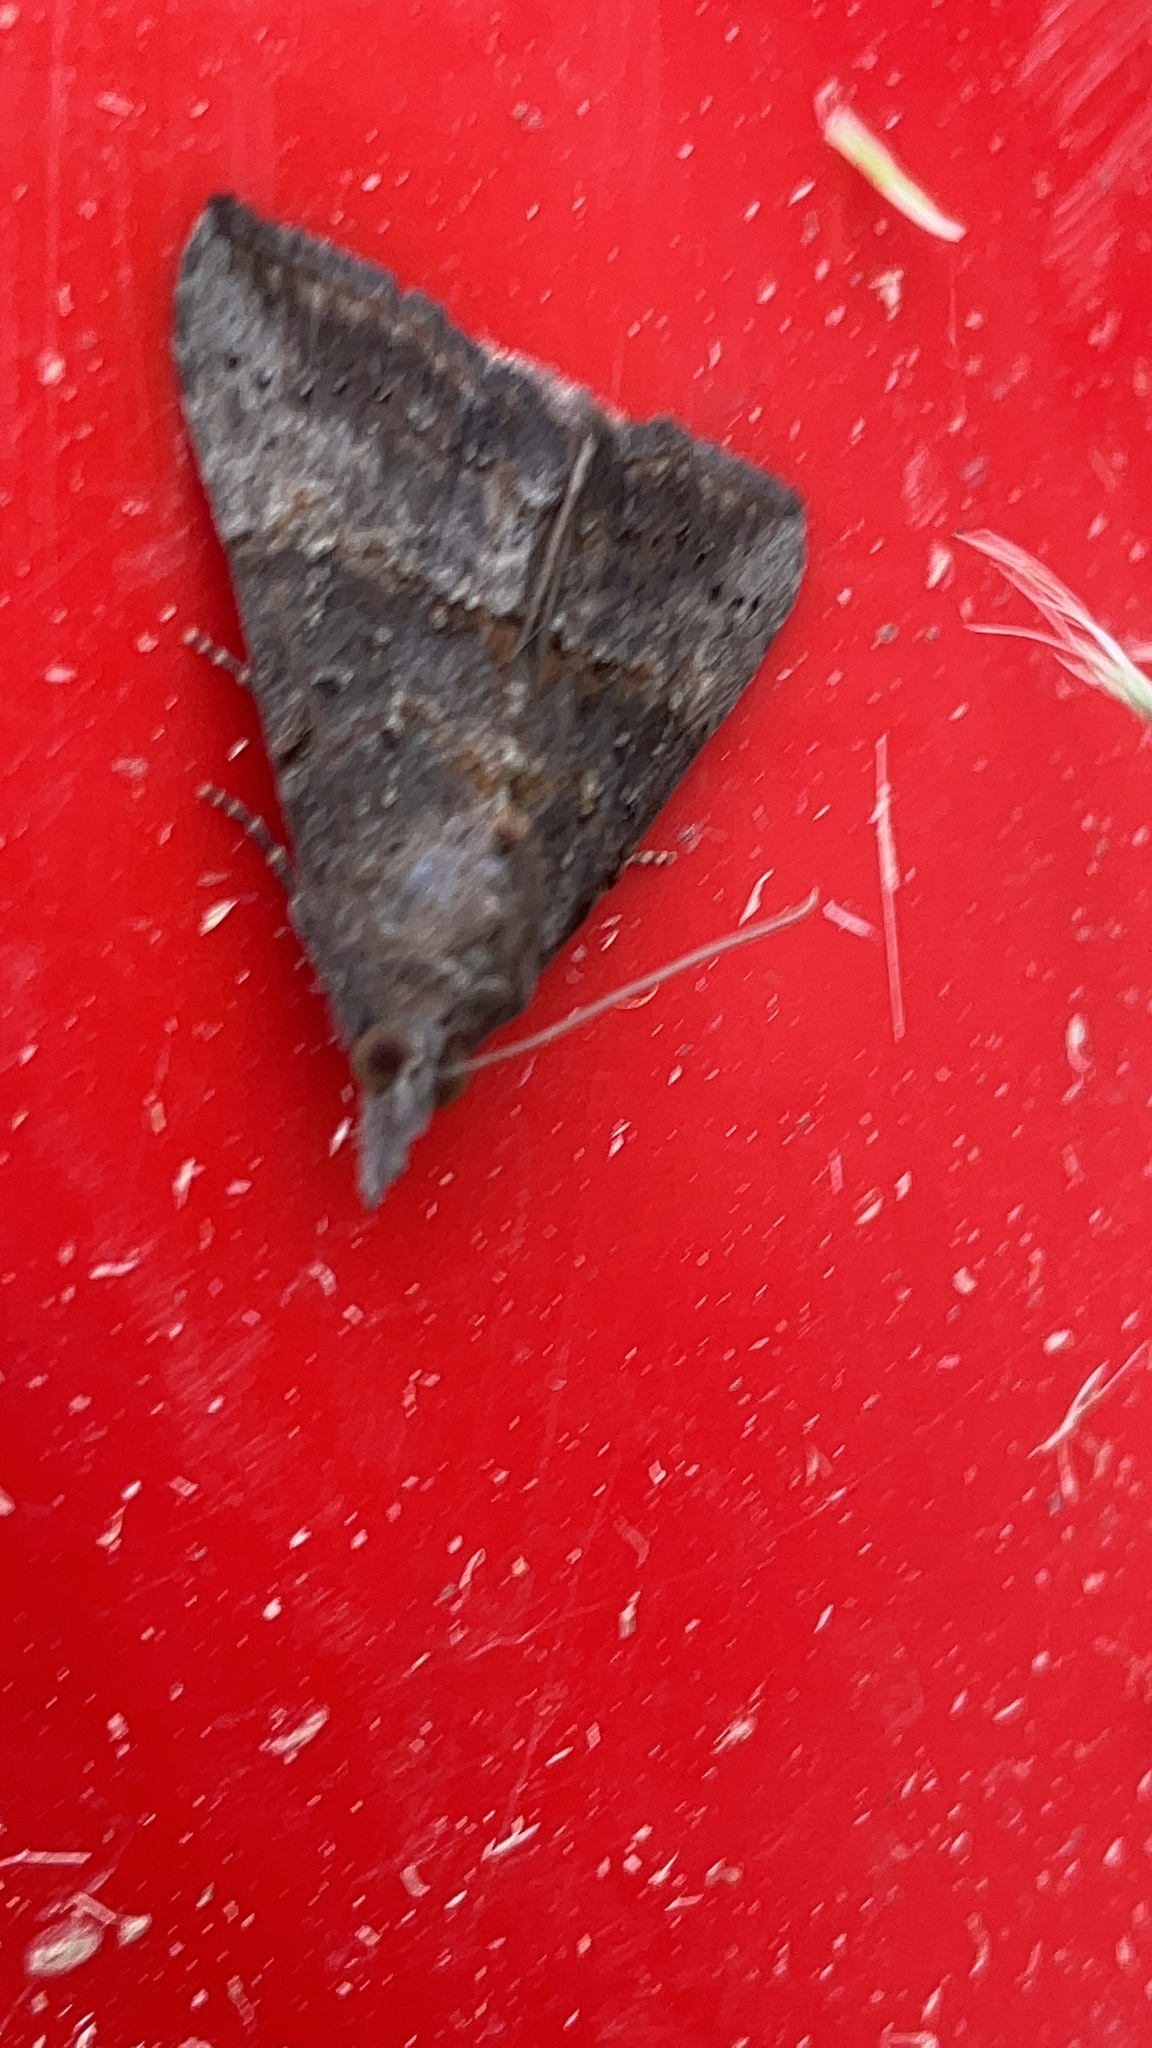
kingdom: Animalia
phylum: Arthropoda
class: Insecta
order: Lepidoptera
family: Erebidae
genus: Hypena
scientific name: Hypena scabra
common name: Green cloverworm
